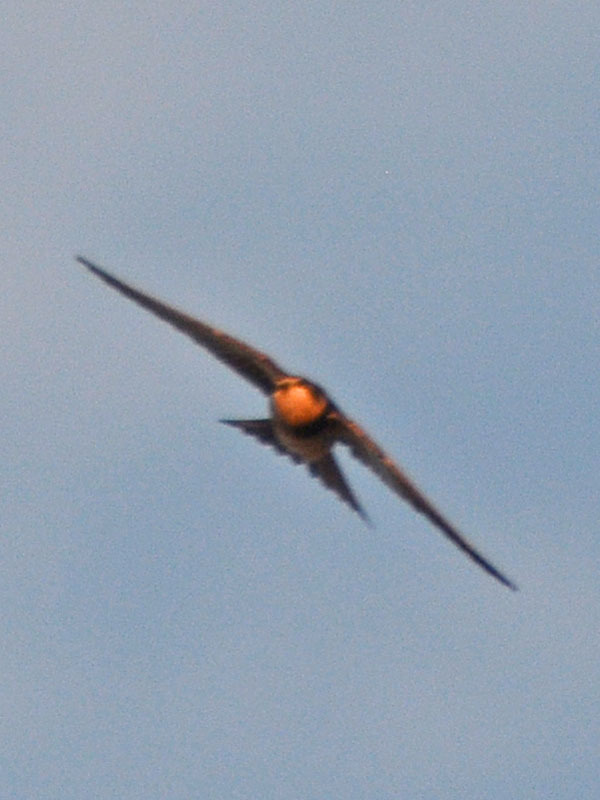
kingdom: Animalia
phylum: Chordata
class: Aves
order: Passeriformes
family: Hirundinidae
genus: Hirundo
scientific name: Hirundo rustica
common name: Barn swallow
